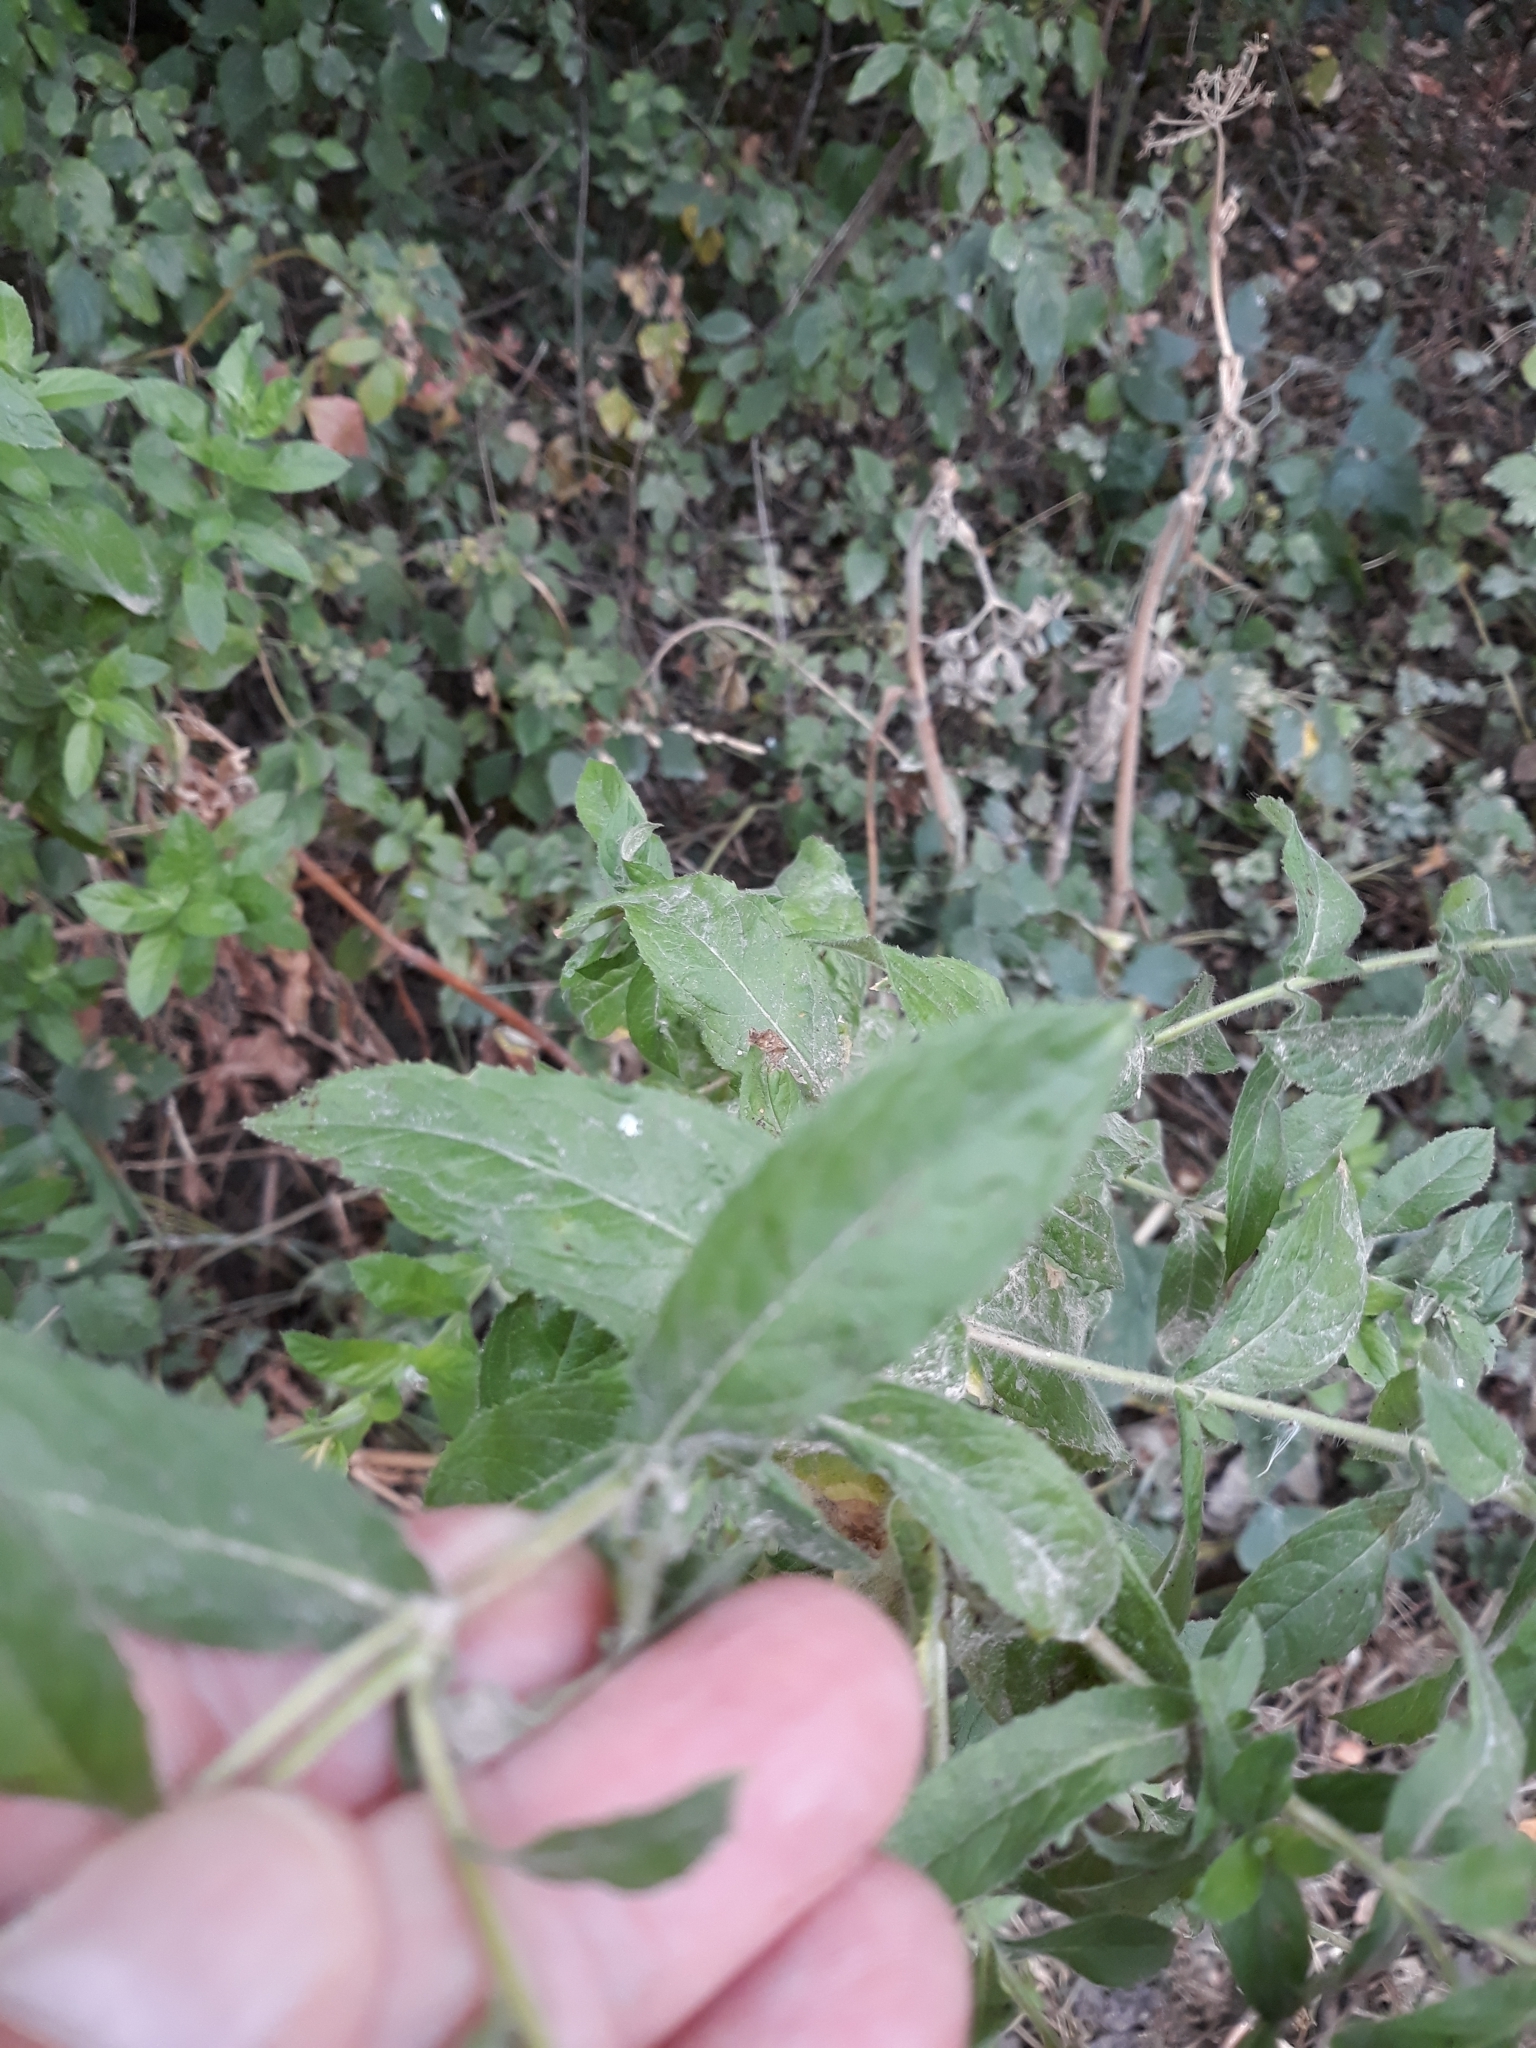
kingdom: Plantae
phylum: Tracheophyta
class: Magnoliopsida
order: Myrtales
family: Onagraceae
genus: Epilobium
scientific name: Epilobium hirsutum
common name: Great willowherb
